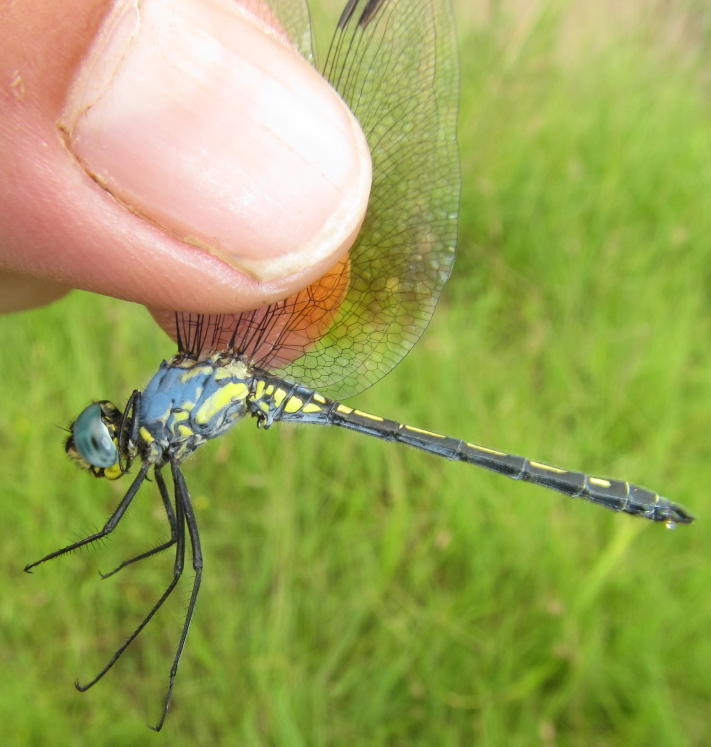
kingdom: Animalia
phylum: Arthropoda
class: Insecta
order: Odonata
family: Libellulidae
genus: Trithemis
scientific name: Trithemis stictica
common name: Jaunty dropwing
